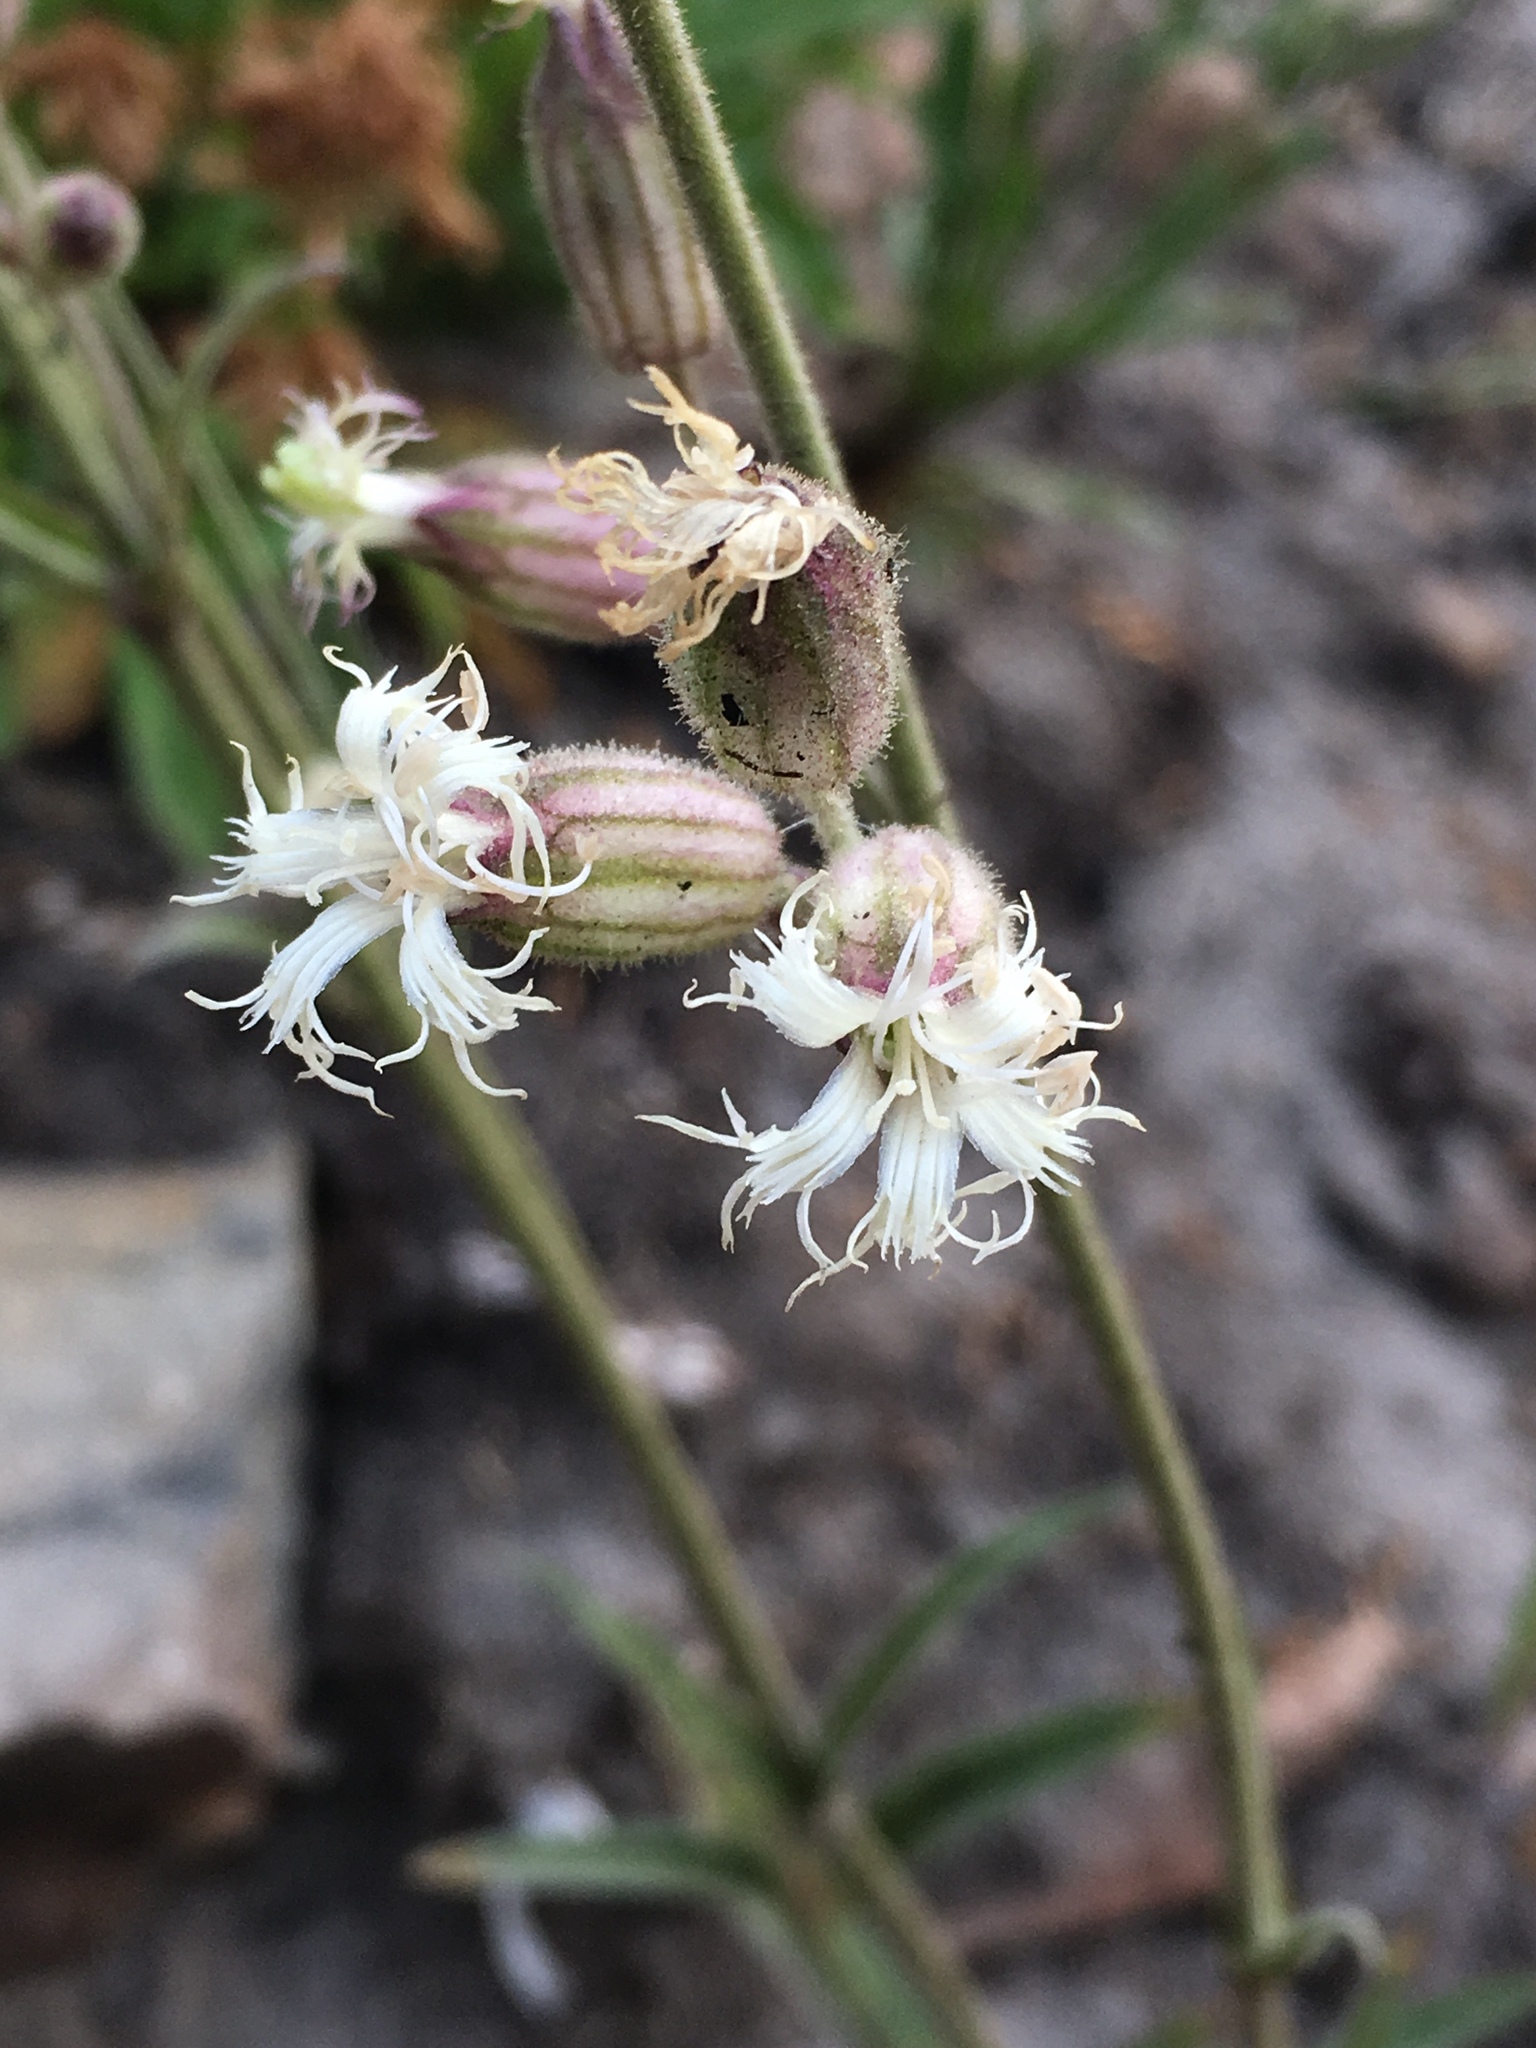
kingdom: Plantae
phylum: Tracheophyta
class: Magnoliopsida
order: Caryophyllales
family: Caryophyllaceae
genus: Silene
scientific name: Silene oregana
